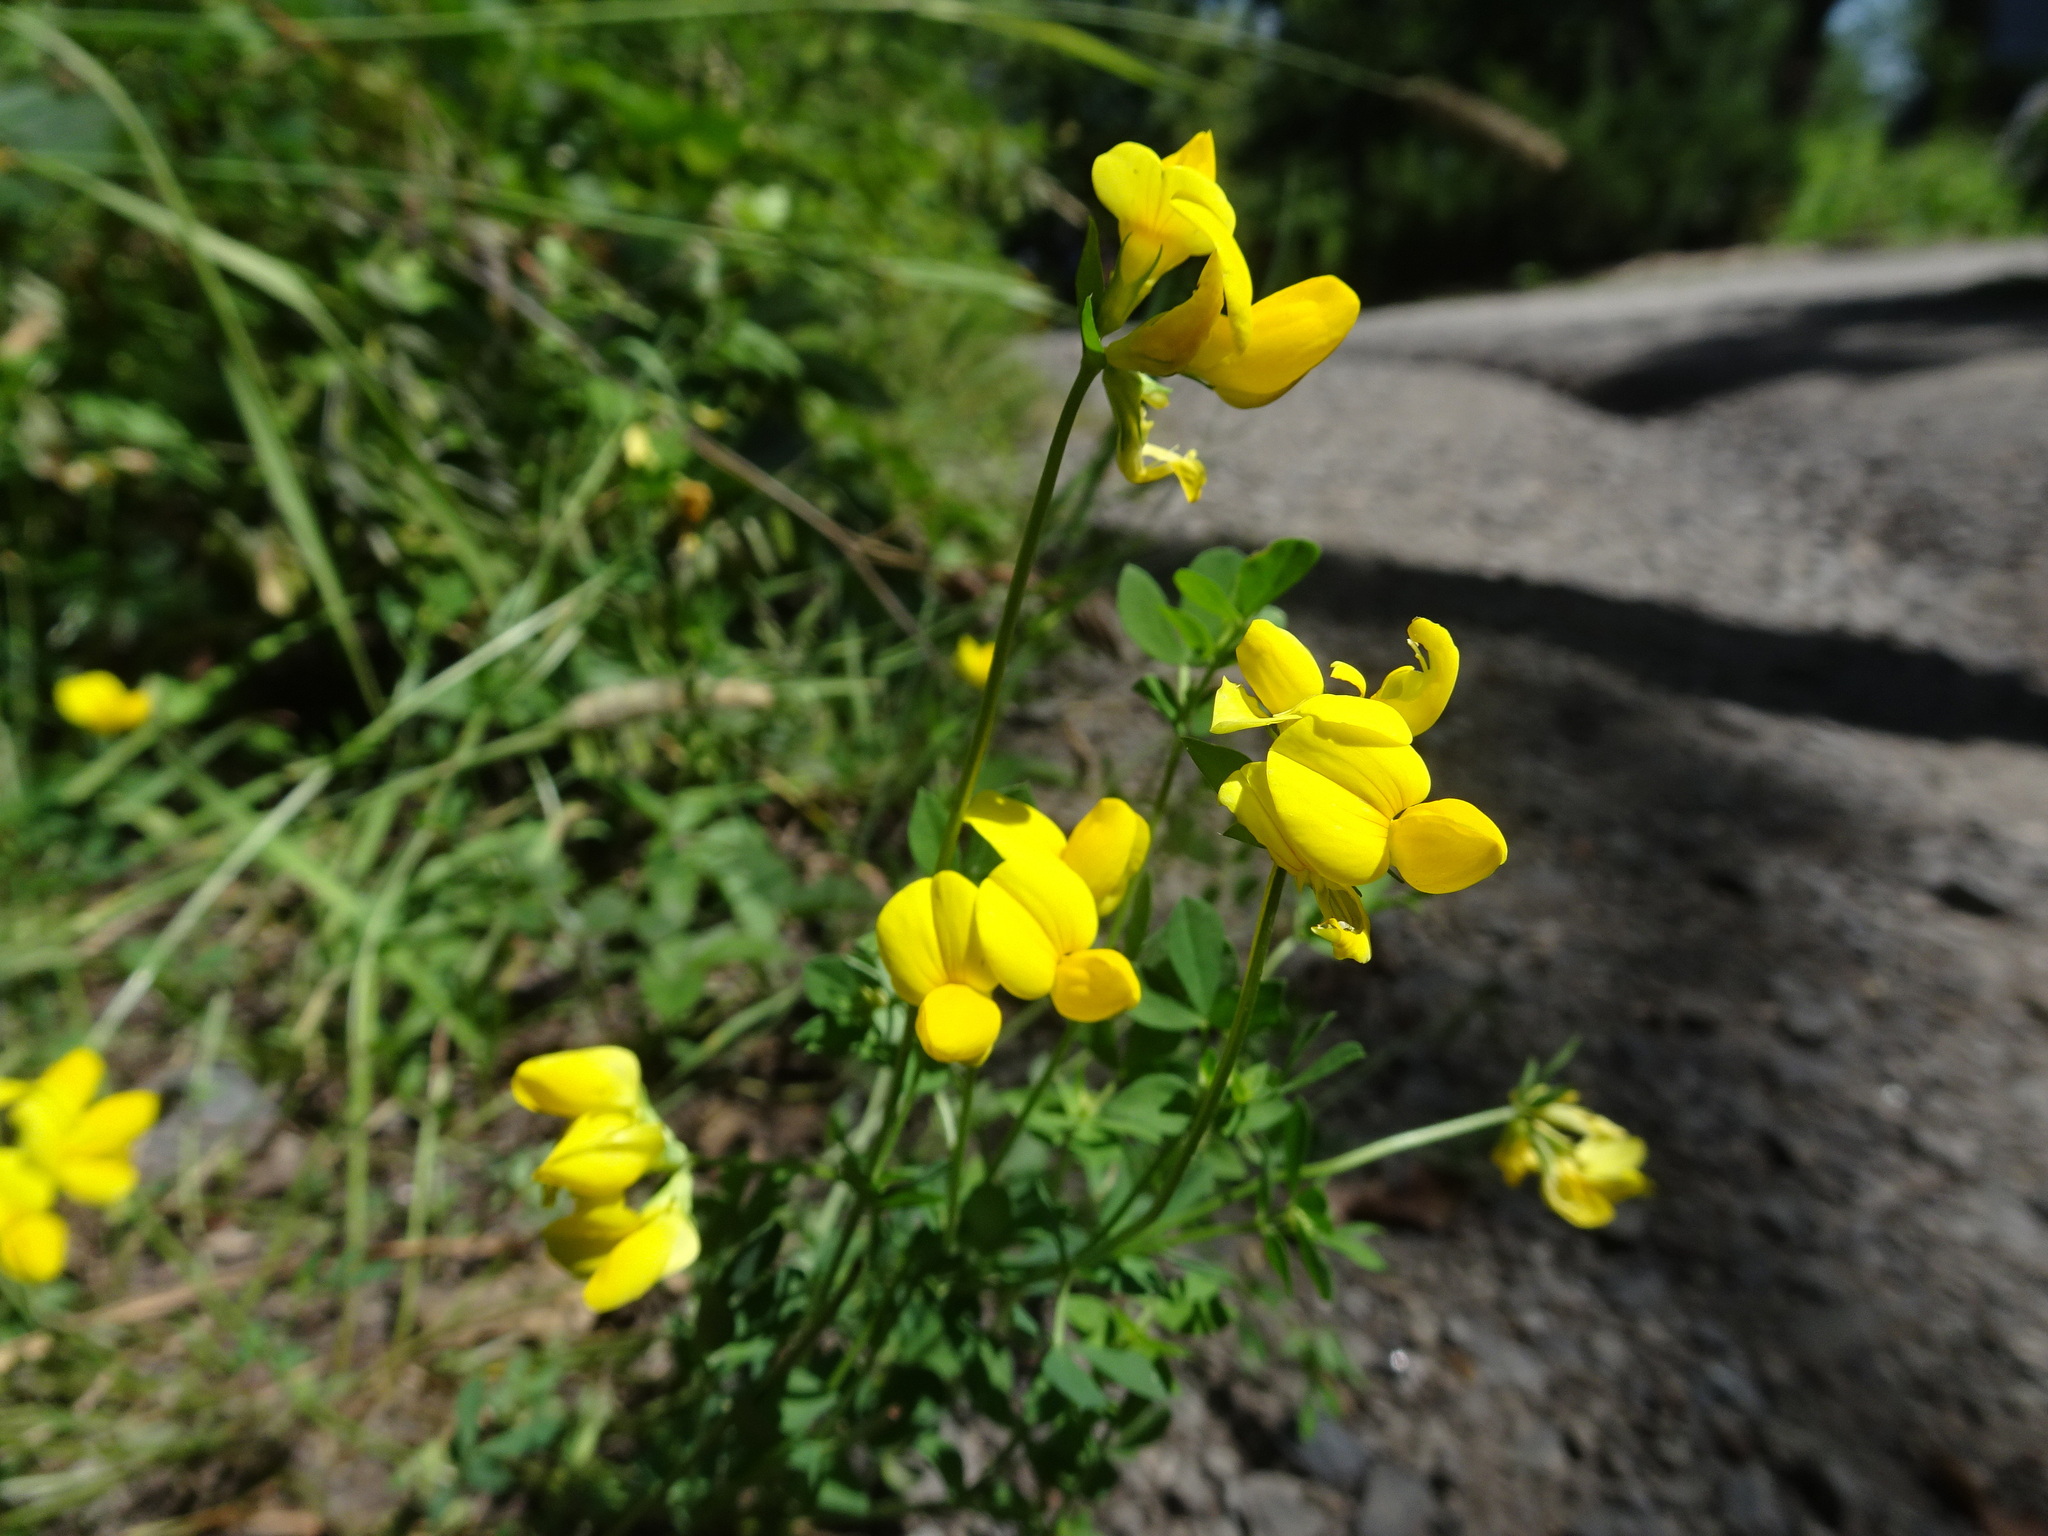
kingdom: Plantae
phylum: Tracheophyta
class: Magnoliopsida
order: Fabales
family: Fabaceae
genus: Lotus
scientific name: Lotus corniculatus
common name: Common bird's-foot-trefoil
